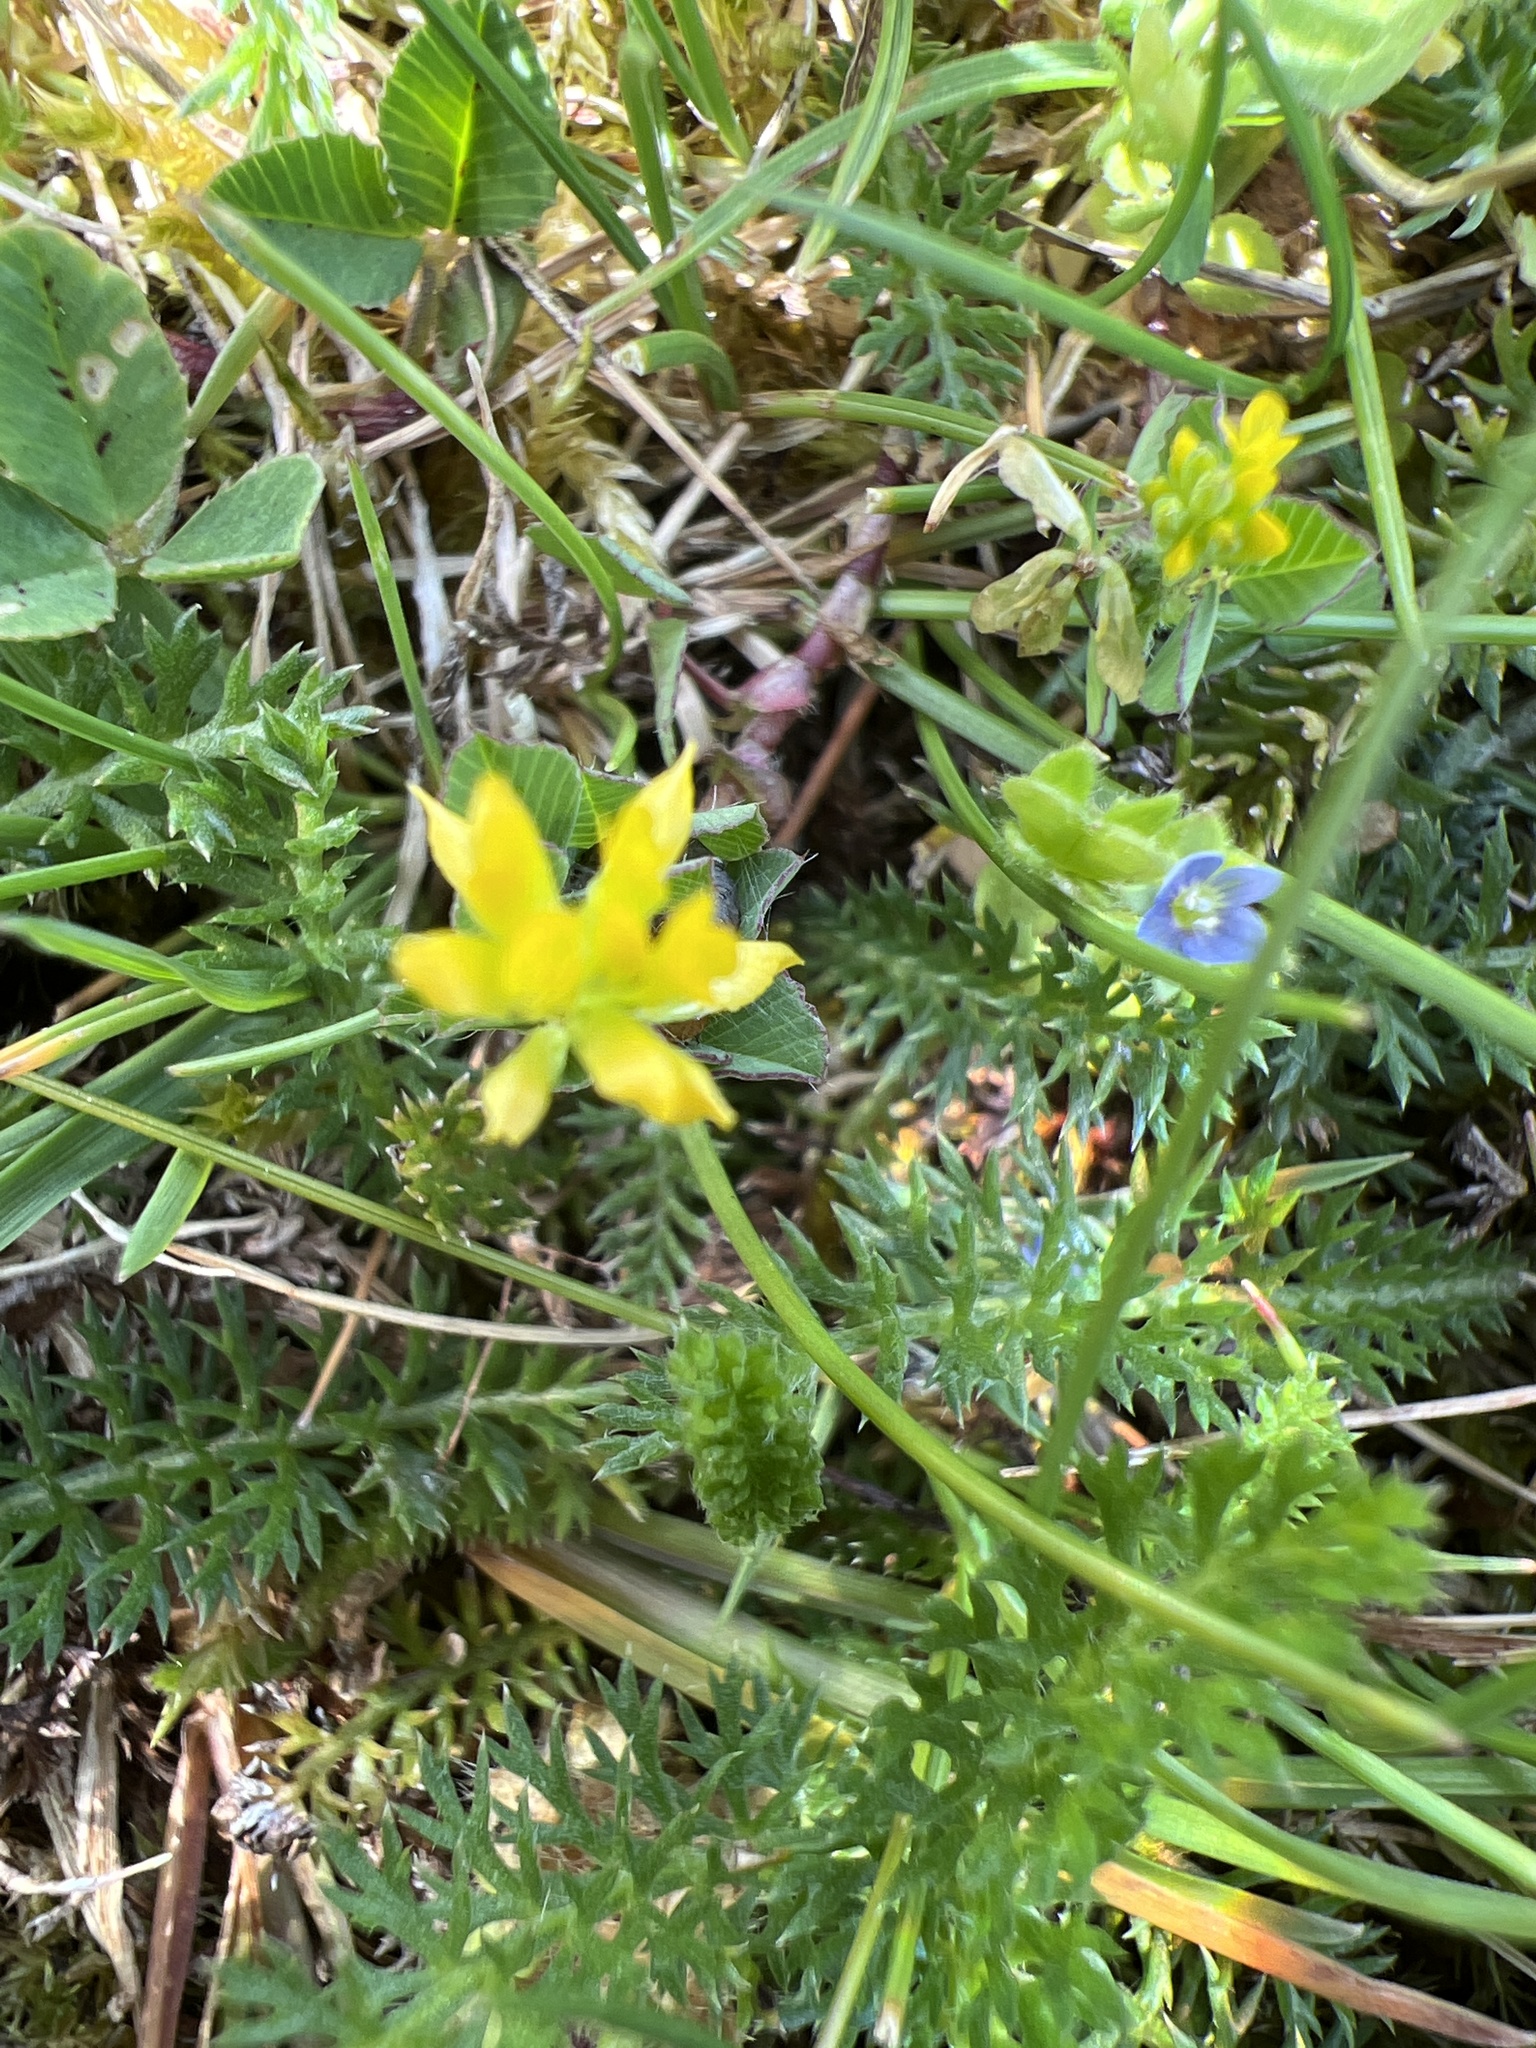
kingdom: Plantae
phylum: Tracheophyta
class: Magnoliopsida
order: Fabales
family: Fabaceae
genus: Trifolium
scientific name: Trifolium dubium
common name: Suckling clover
